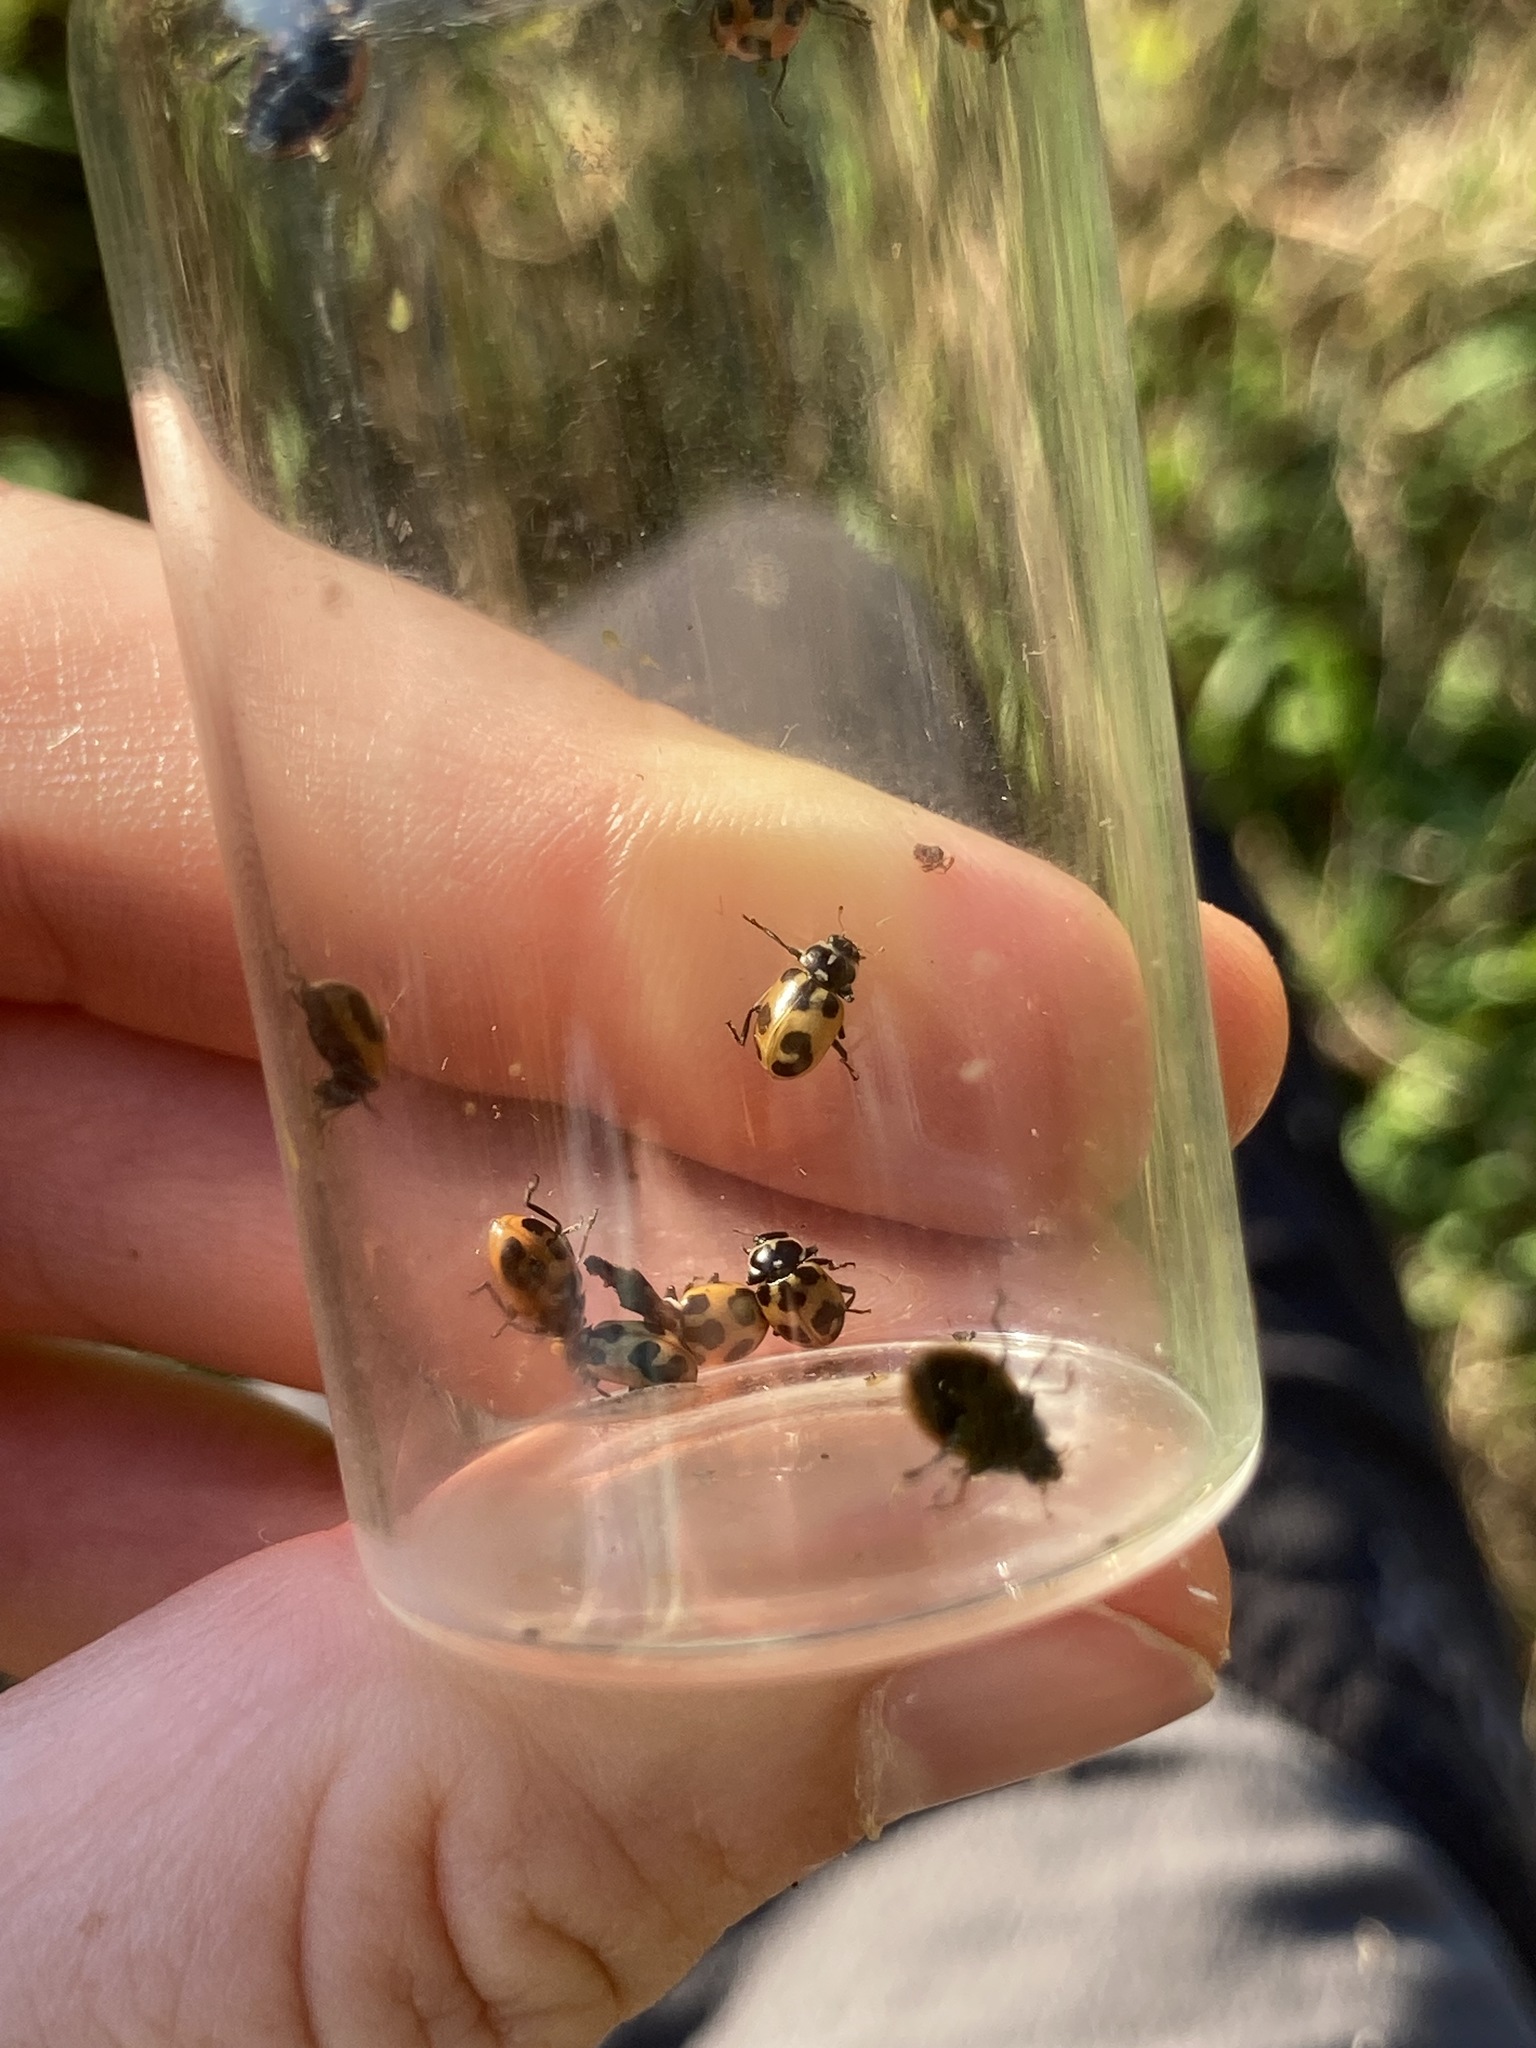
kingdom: Animalia
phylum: Arthropoda
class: Insecta
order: Coleoptera
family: Coccinellidae
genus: Hippodamia
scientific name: Hippodamia parenthesis
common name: Parenthesis lady beetle
